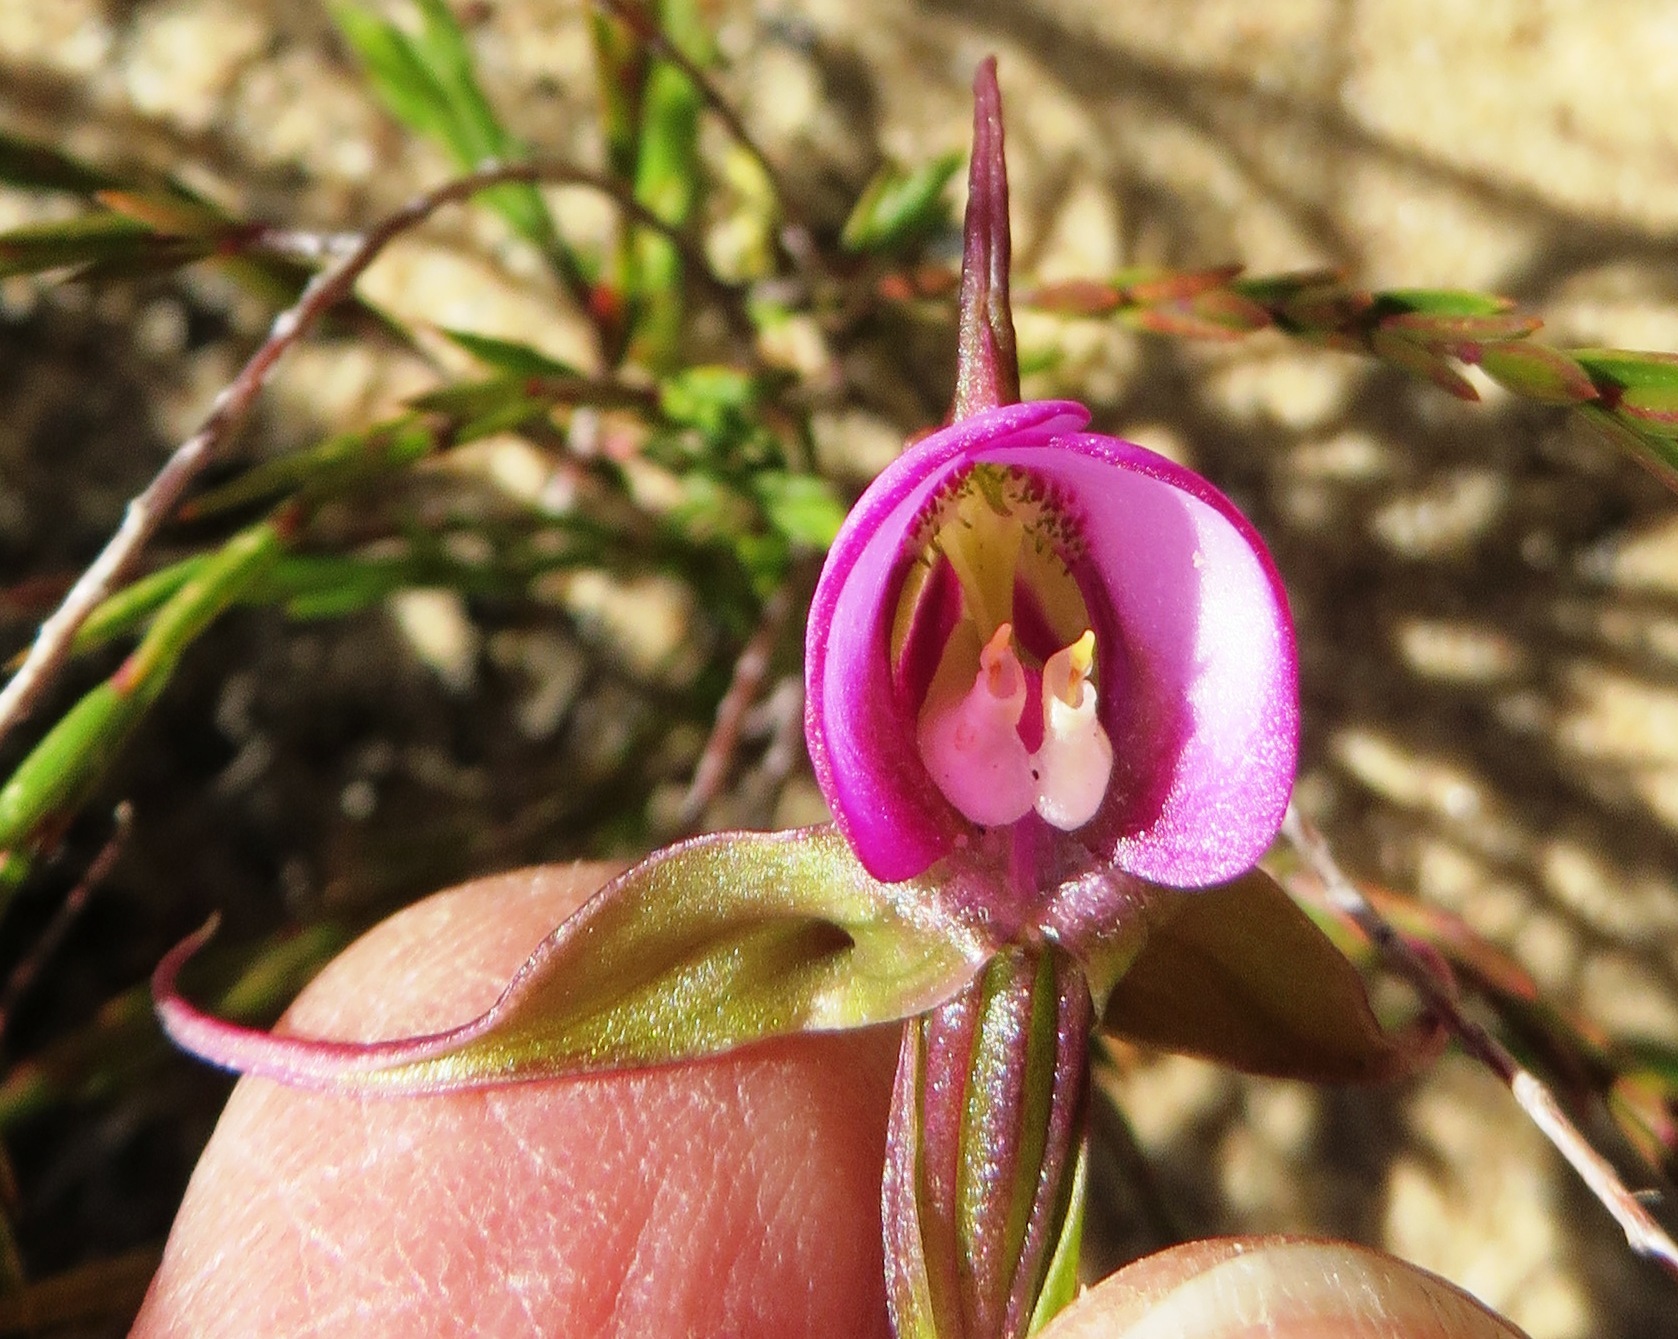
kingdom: Plantae
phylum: Tracheophyta
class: Liliopsida
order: Asparagales
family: Orchidaceae
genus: Disperis
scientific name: Disperis capensis
